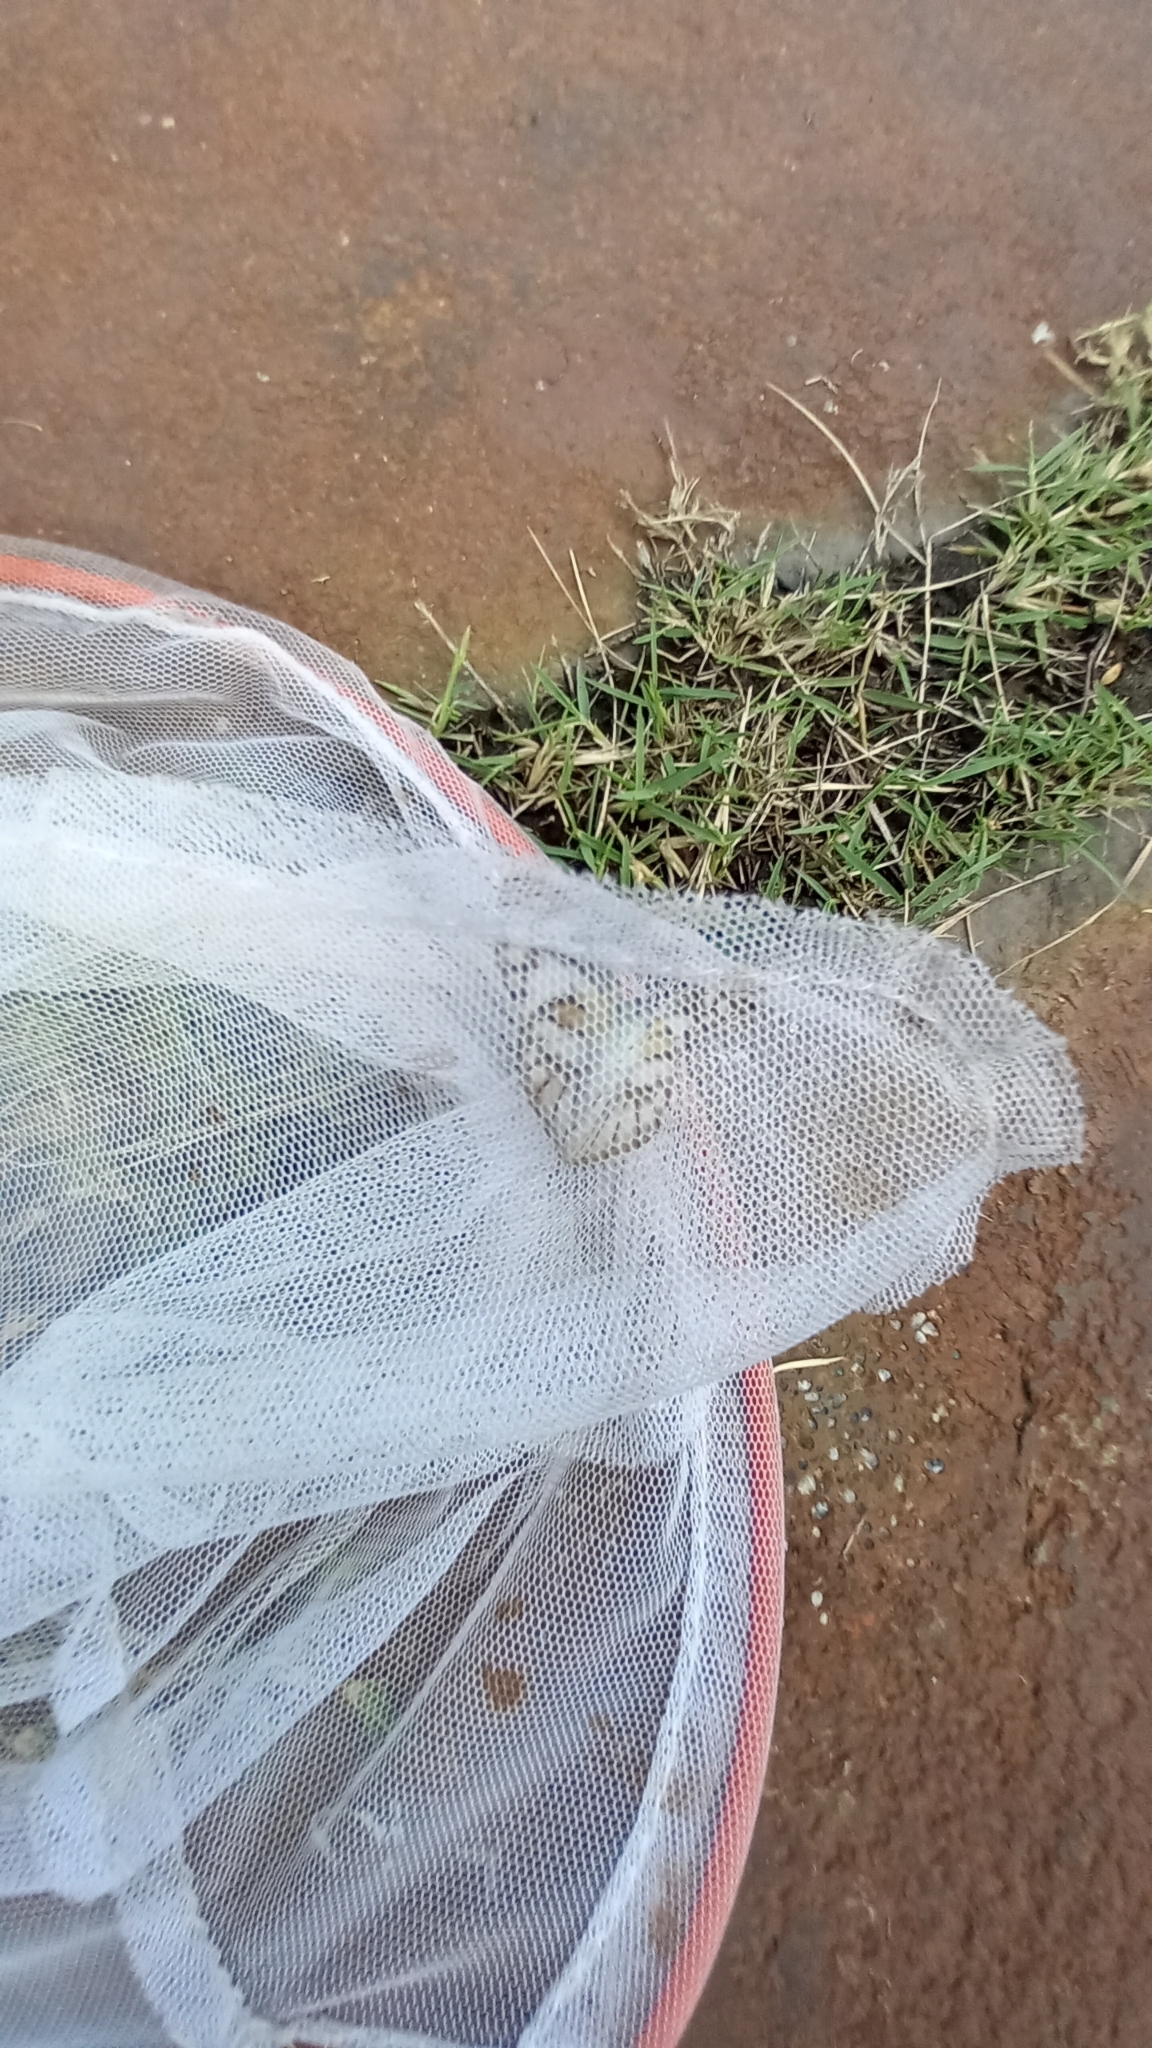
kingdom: Animalia
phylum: Arthropoda
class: Insecta
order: Lepidoptera
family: Pieridae
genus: Appias
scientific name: Appias libythea
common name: Striped albatross
